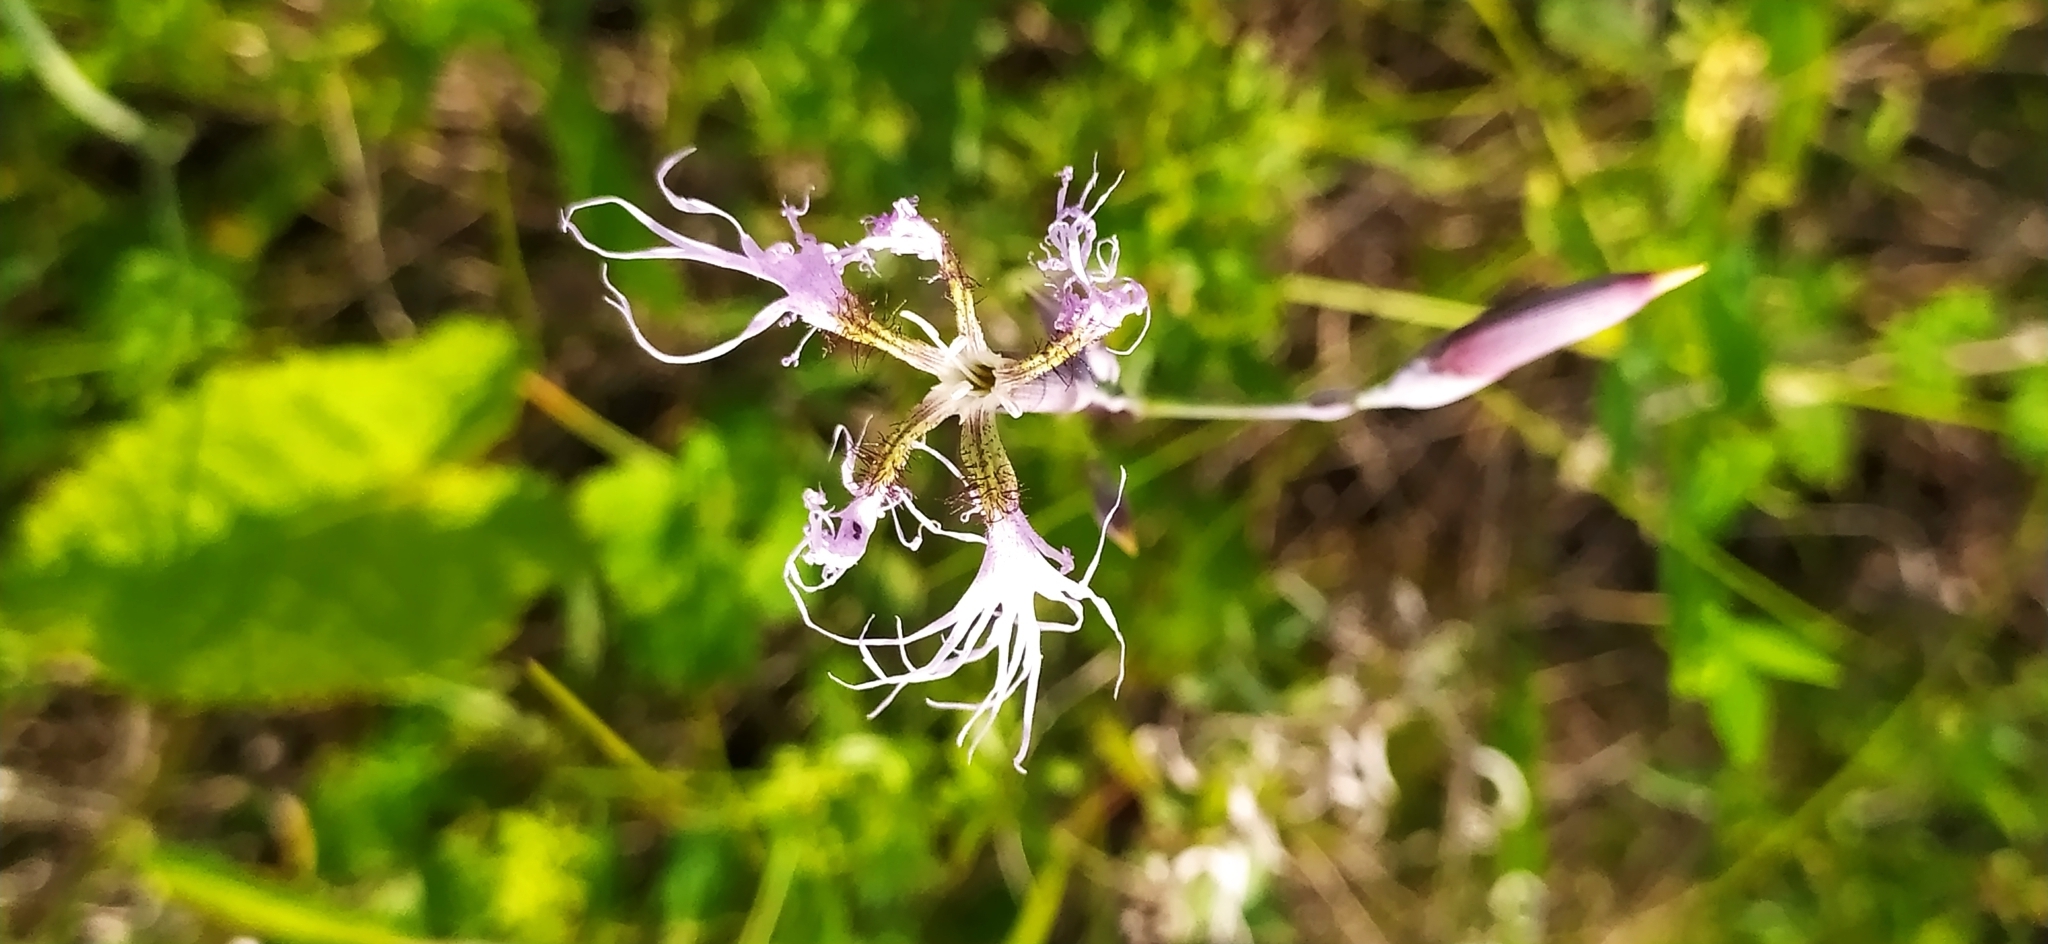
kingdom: Plantae
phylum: Tracheophyta
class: Magnoliopsida
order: Caryophyllales
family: Caryophyllaceae
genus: Dianthus
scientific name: Dianthus superbus
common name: Fringed pink
